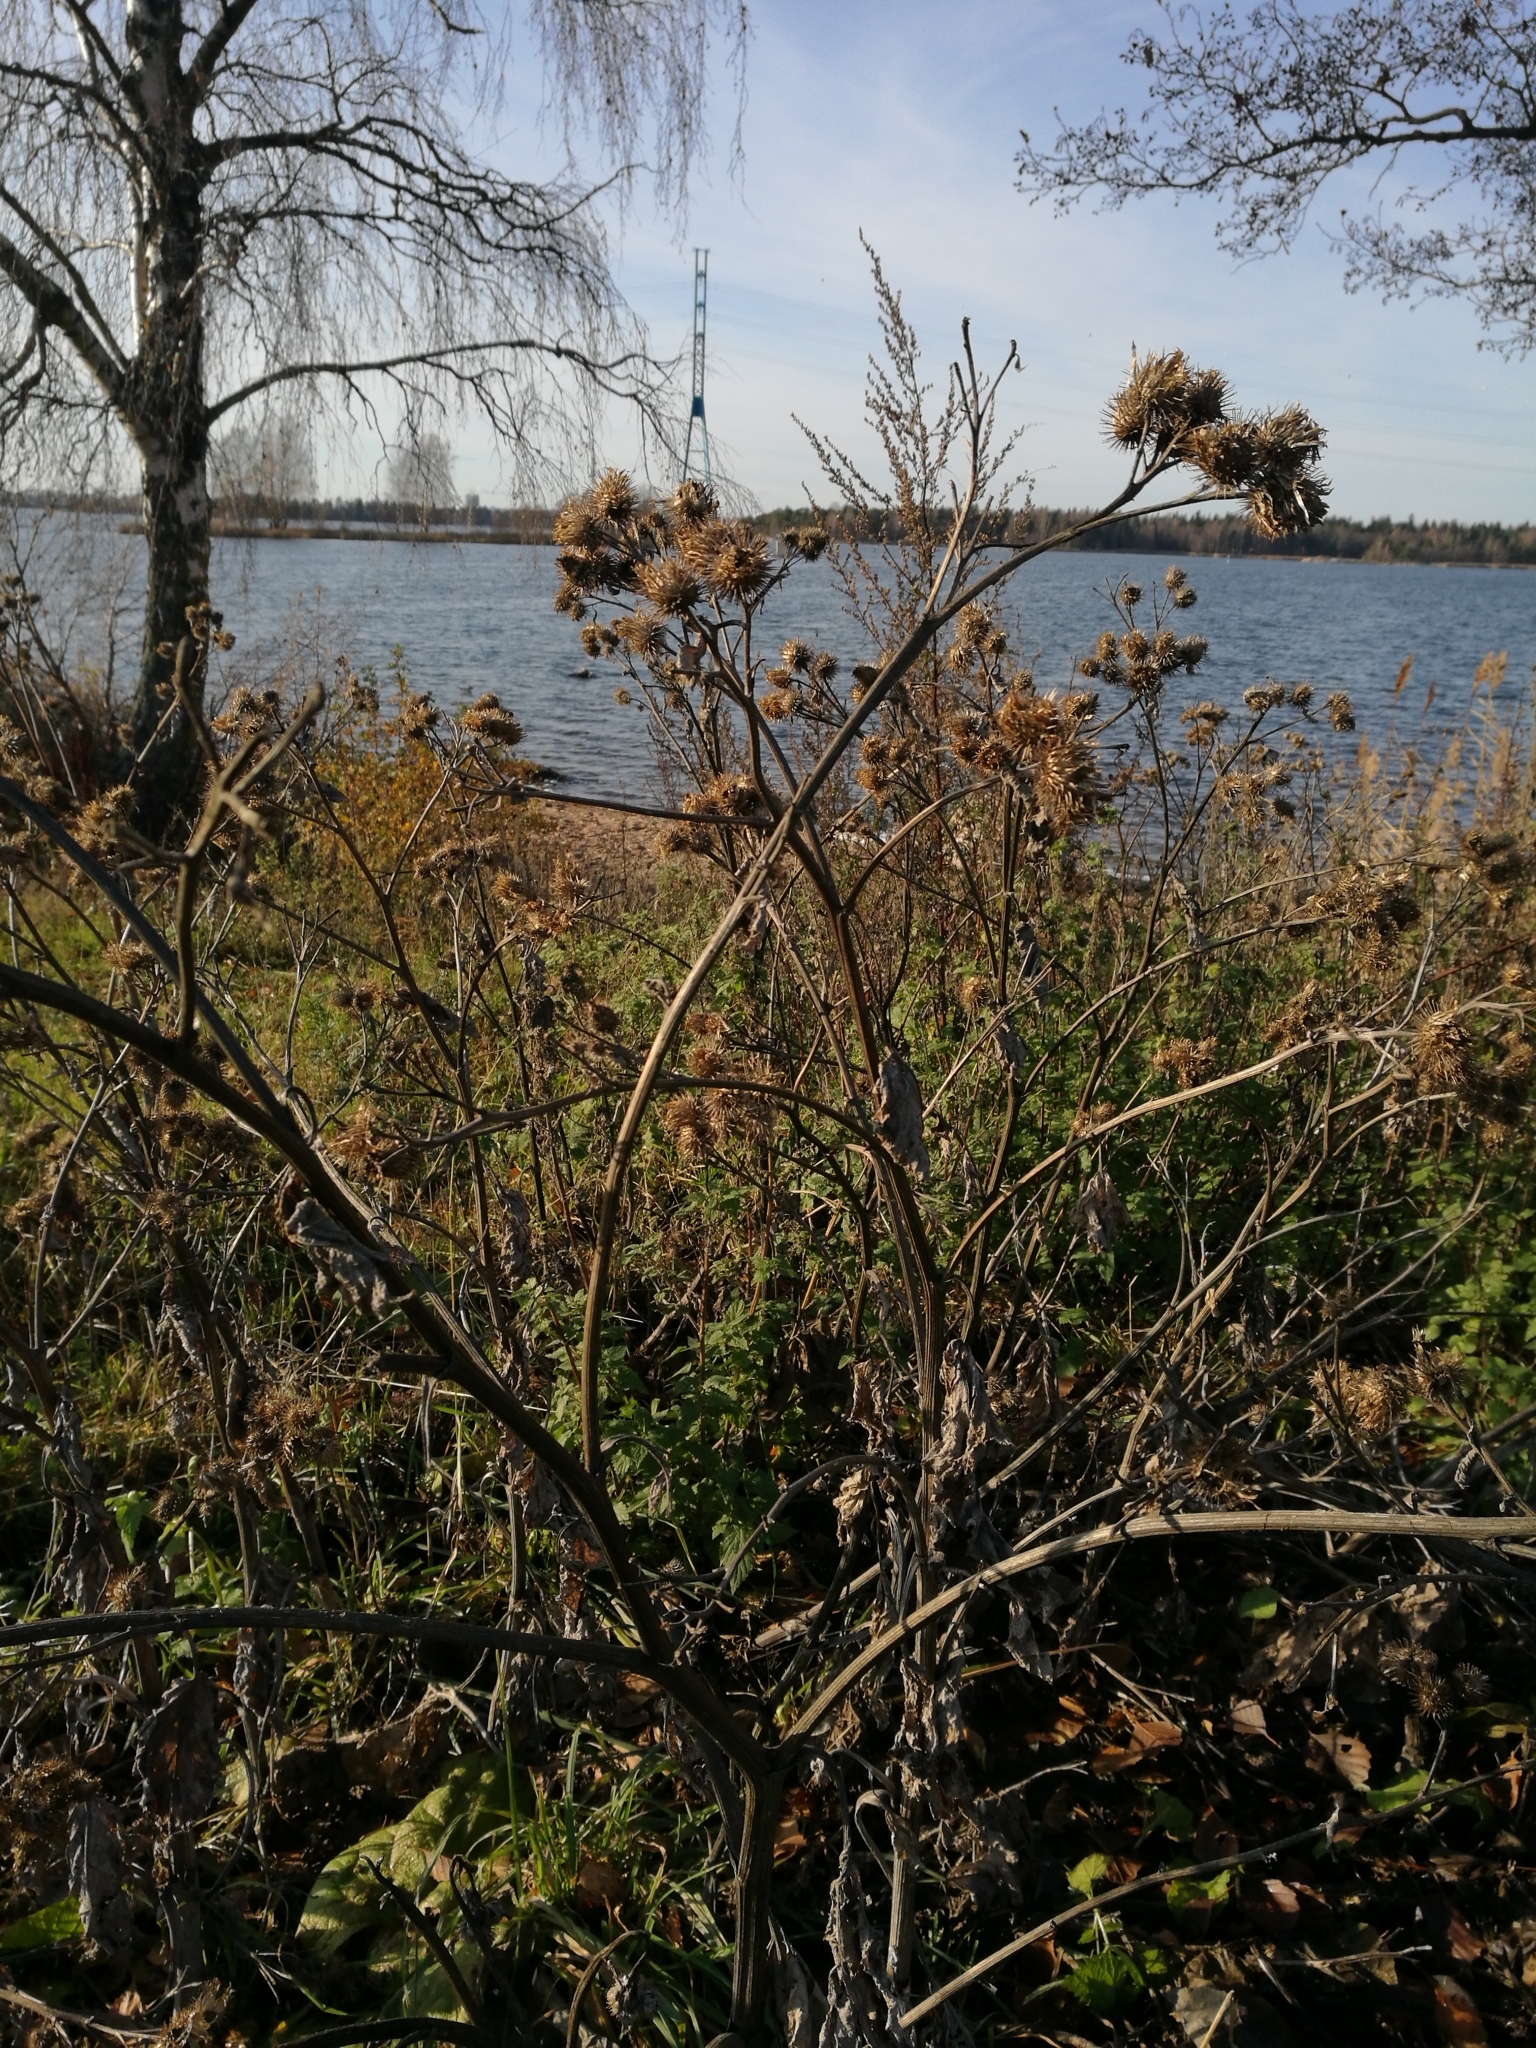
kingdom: Plantae
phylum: Tracheophyta
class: Magnoliopsida
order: Asterales
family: Asteraceae
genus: Arctium
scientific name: Arctium lappa
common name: Greater burdock
